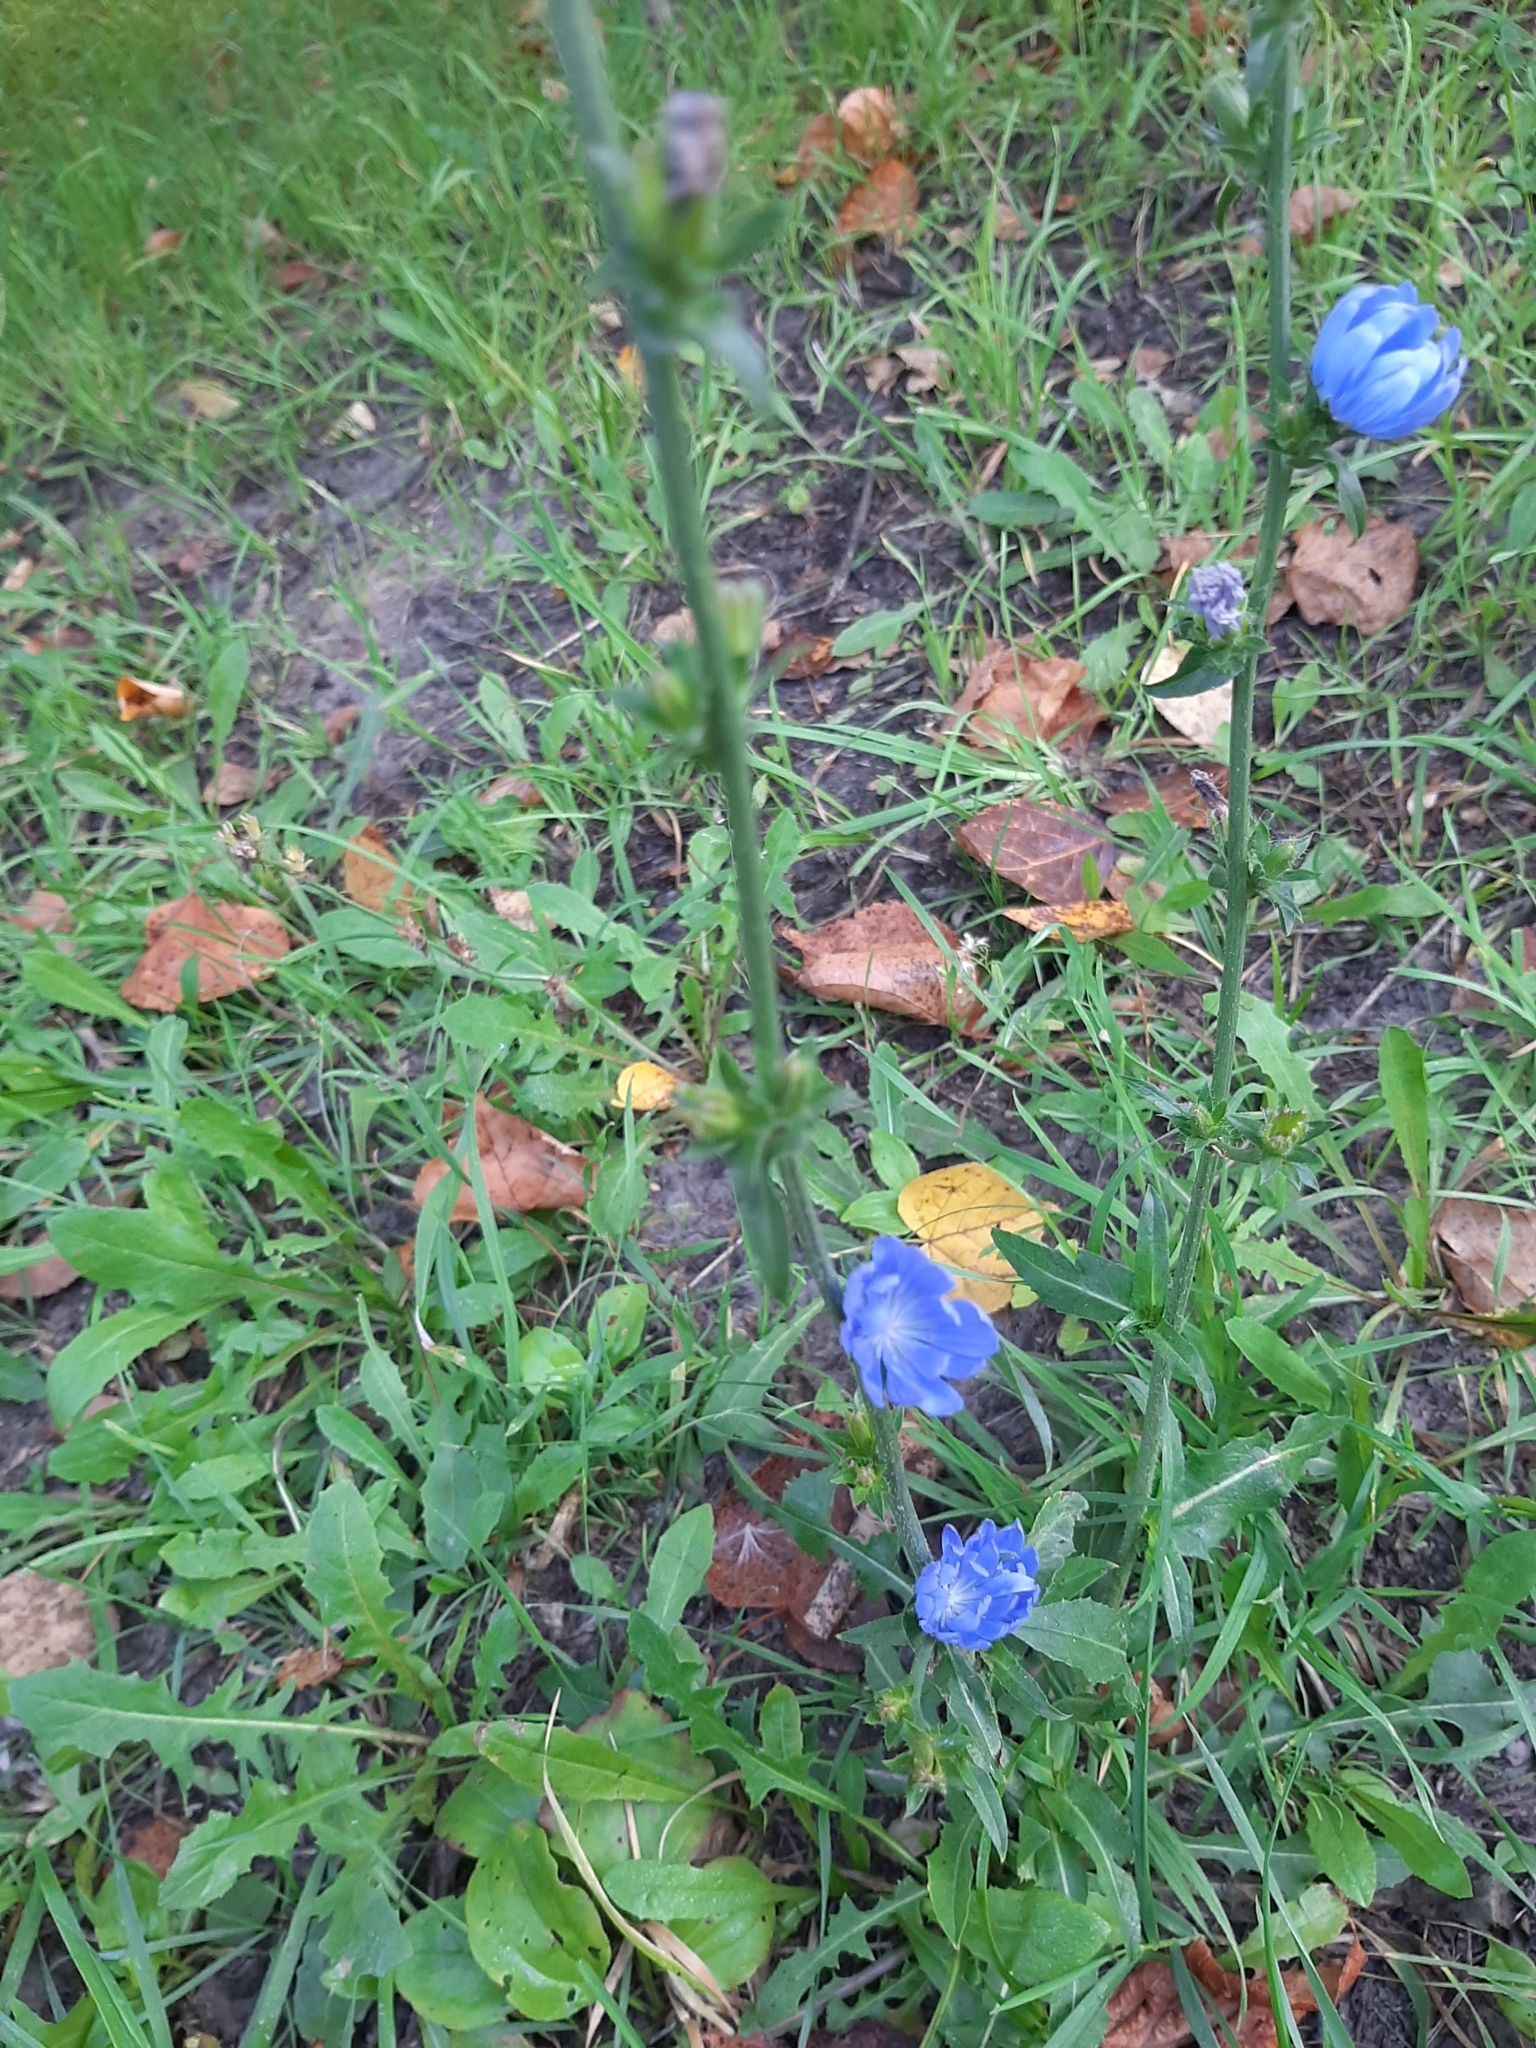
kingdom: Plantae
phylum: Tracheophyta
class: Magnoliopsida
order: Asterales
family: Asteraceae
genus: Cichorium
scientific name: Cichorium intybus
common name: Chicory
